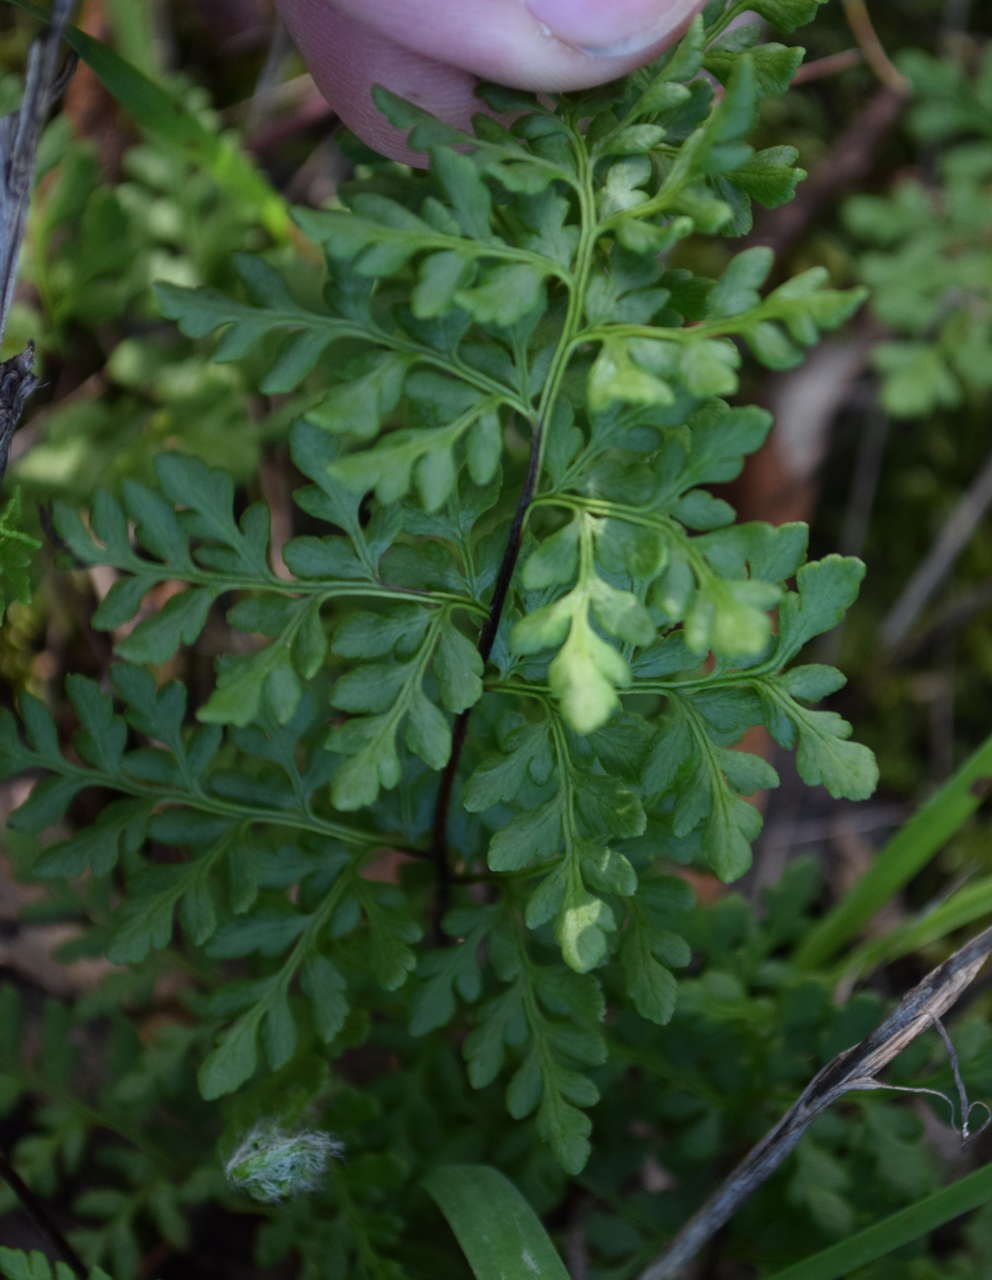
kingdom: Plantae
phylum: Tracheophyta
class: Polypodiopsida
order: Polypodiales
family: Pteridaceae
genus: Cheilanthes
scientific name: Cheilanthes austrotenuifolia
